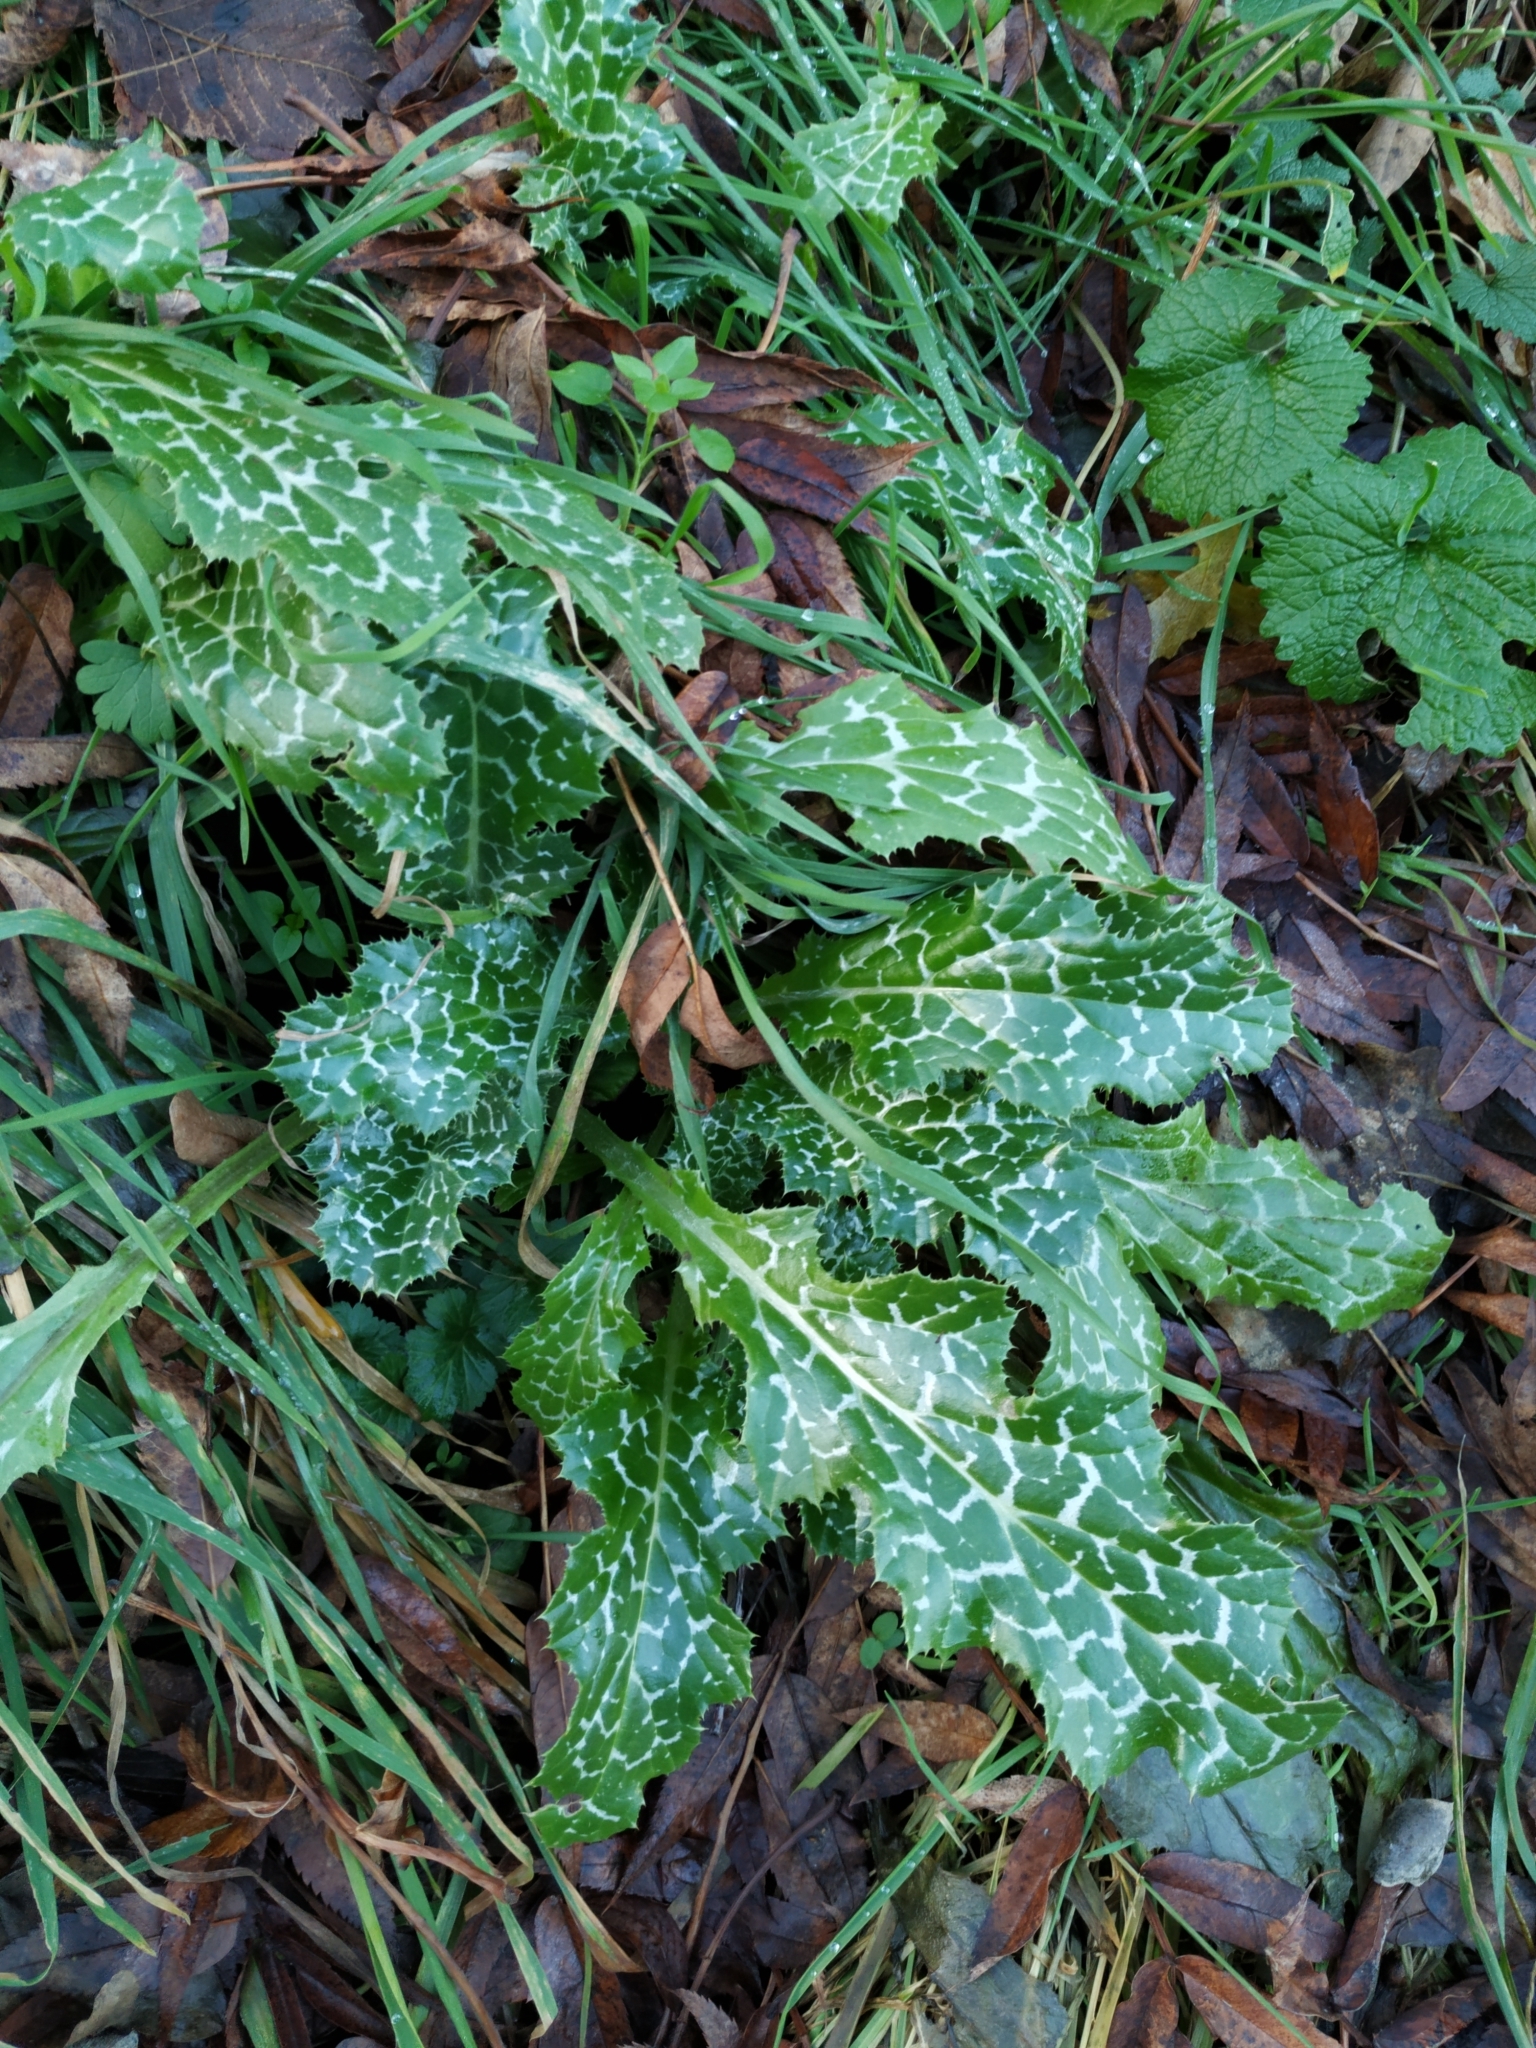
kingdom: Plantae
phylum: Tracheophyta
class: Magnoliopsida
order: Asterales
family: Asteraceae
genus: Silybum
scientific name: Silybum marianum
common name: Milk thistle
